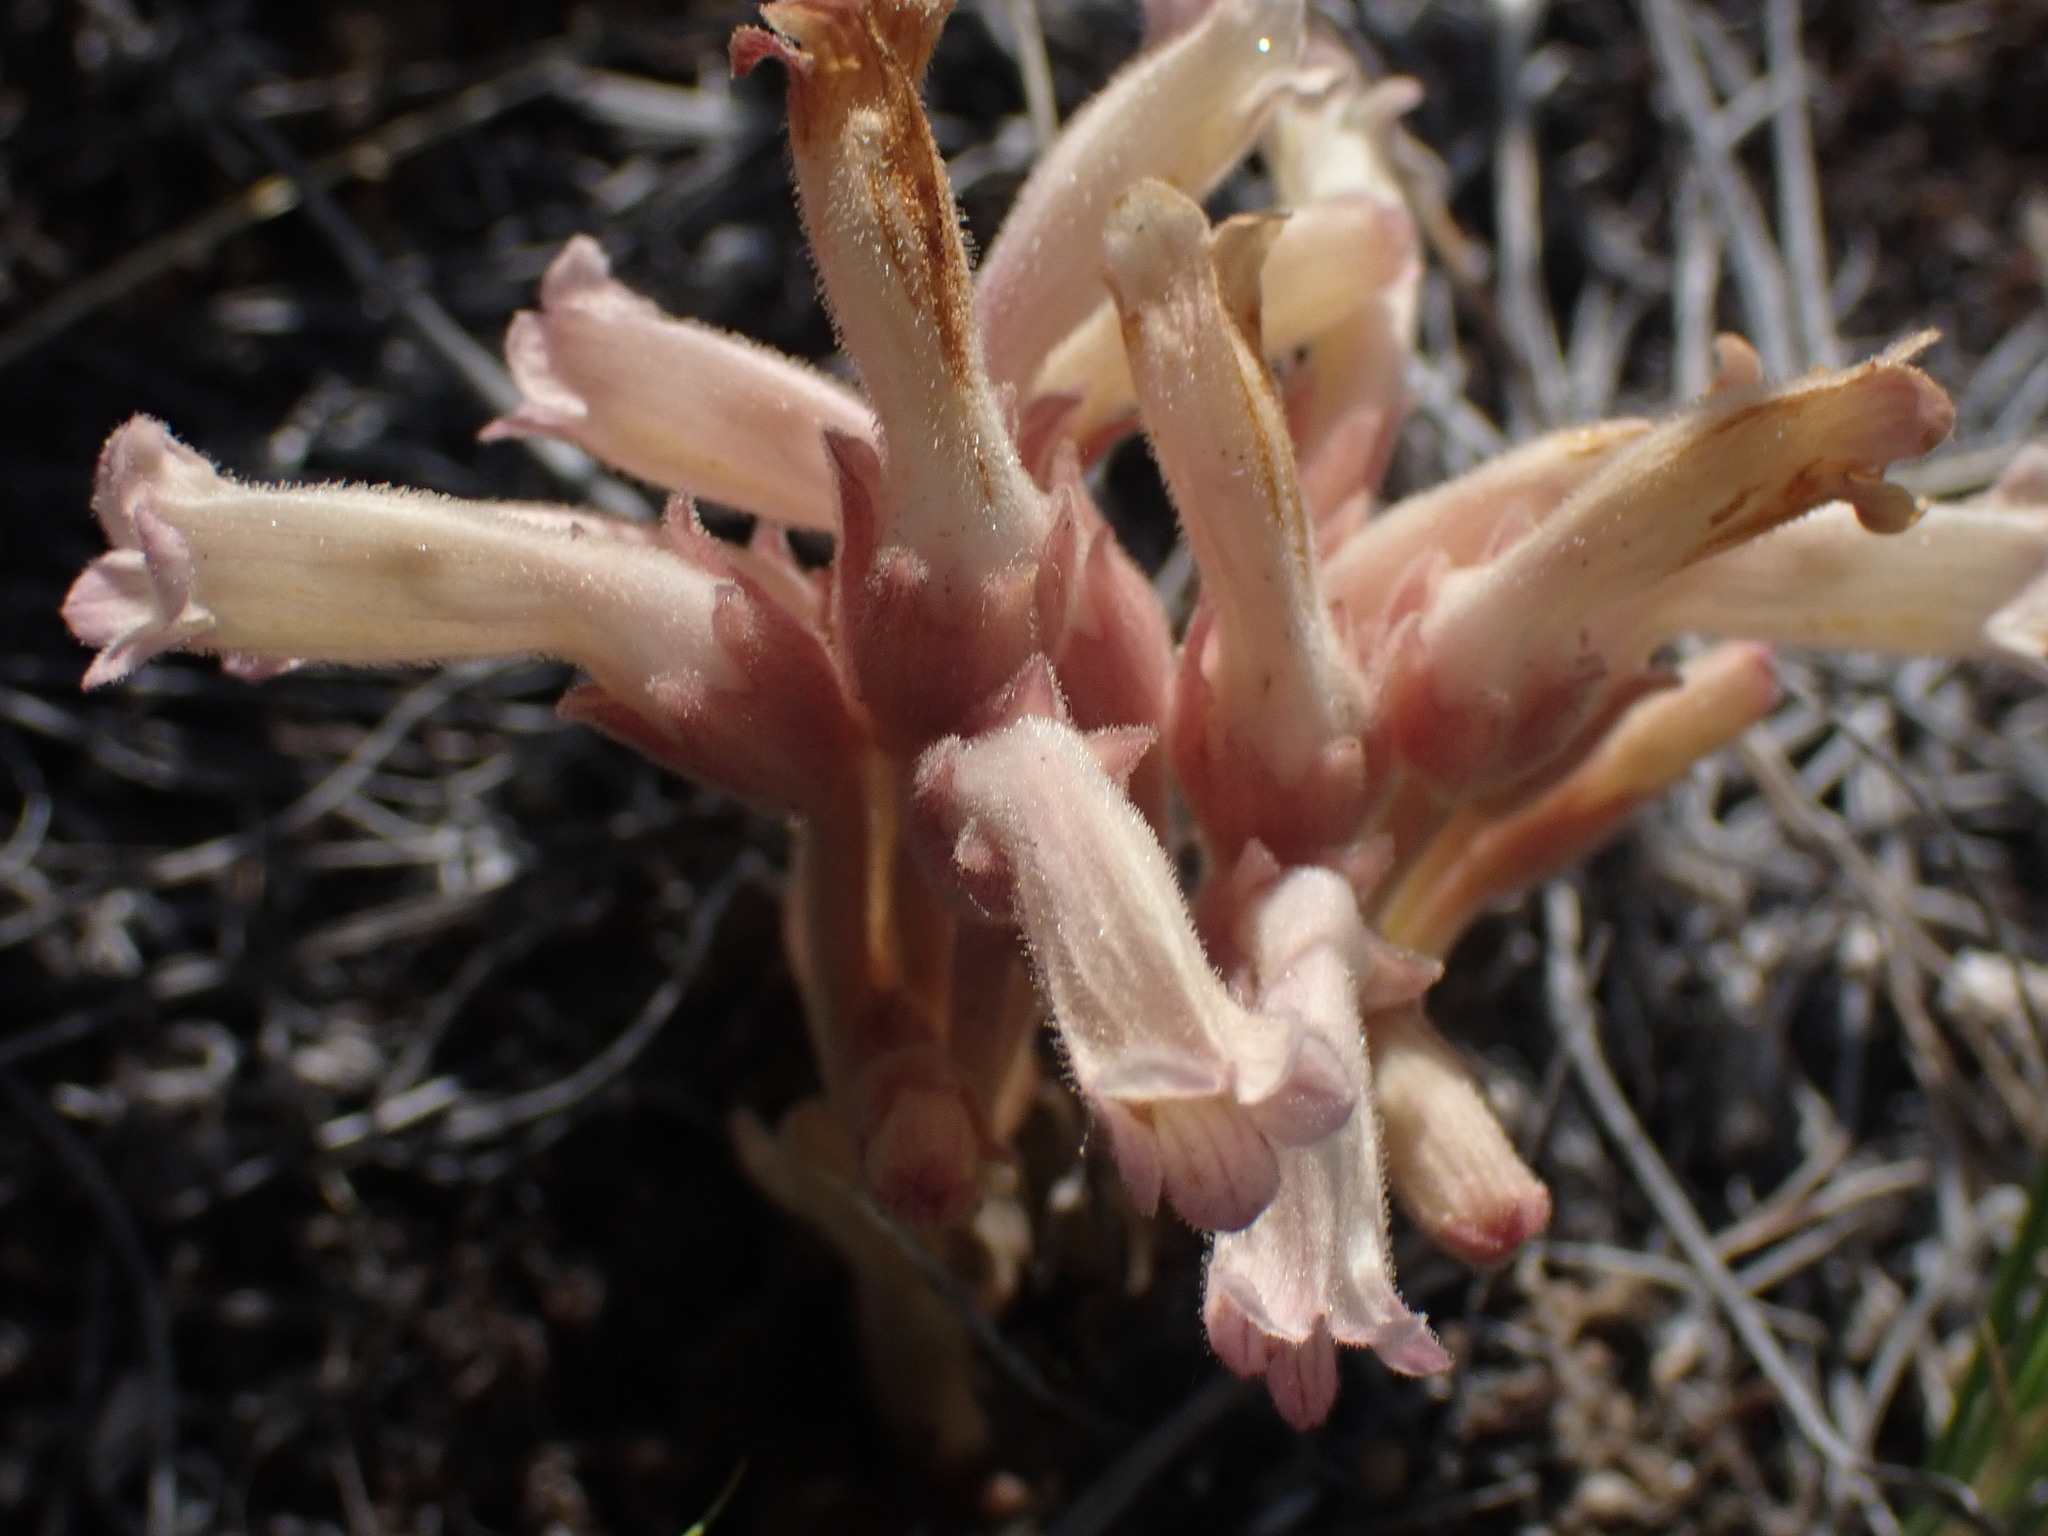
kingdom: Plantae
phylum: Tracheophyta
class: Magnoliopsida
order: Lamiales
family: Orobanchaceae
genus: Aphyllon
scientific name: Aphyllon fasciculatum
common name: Clustered broomrape
